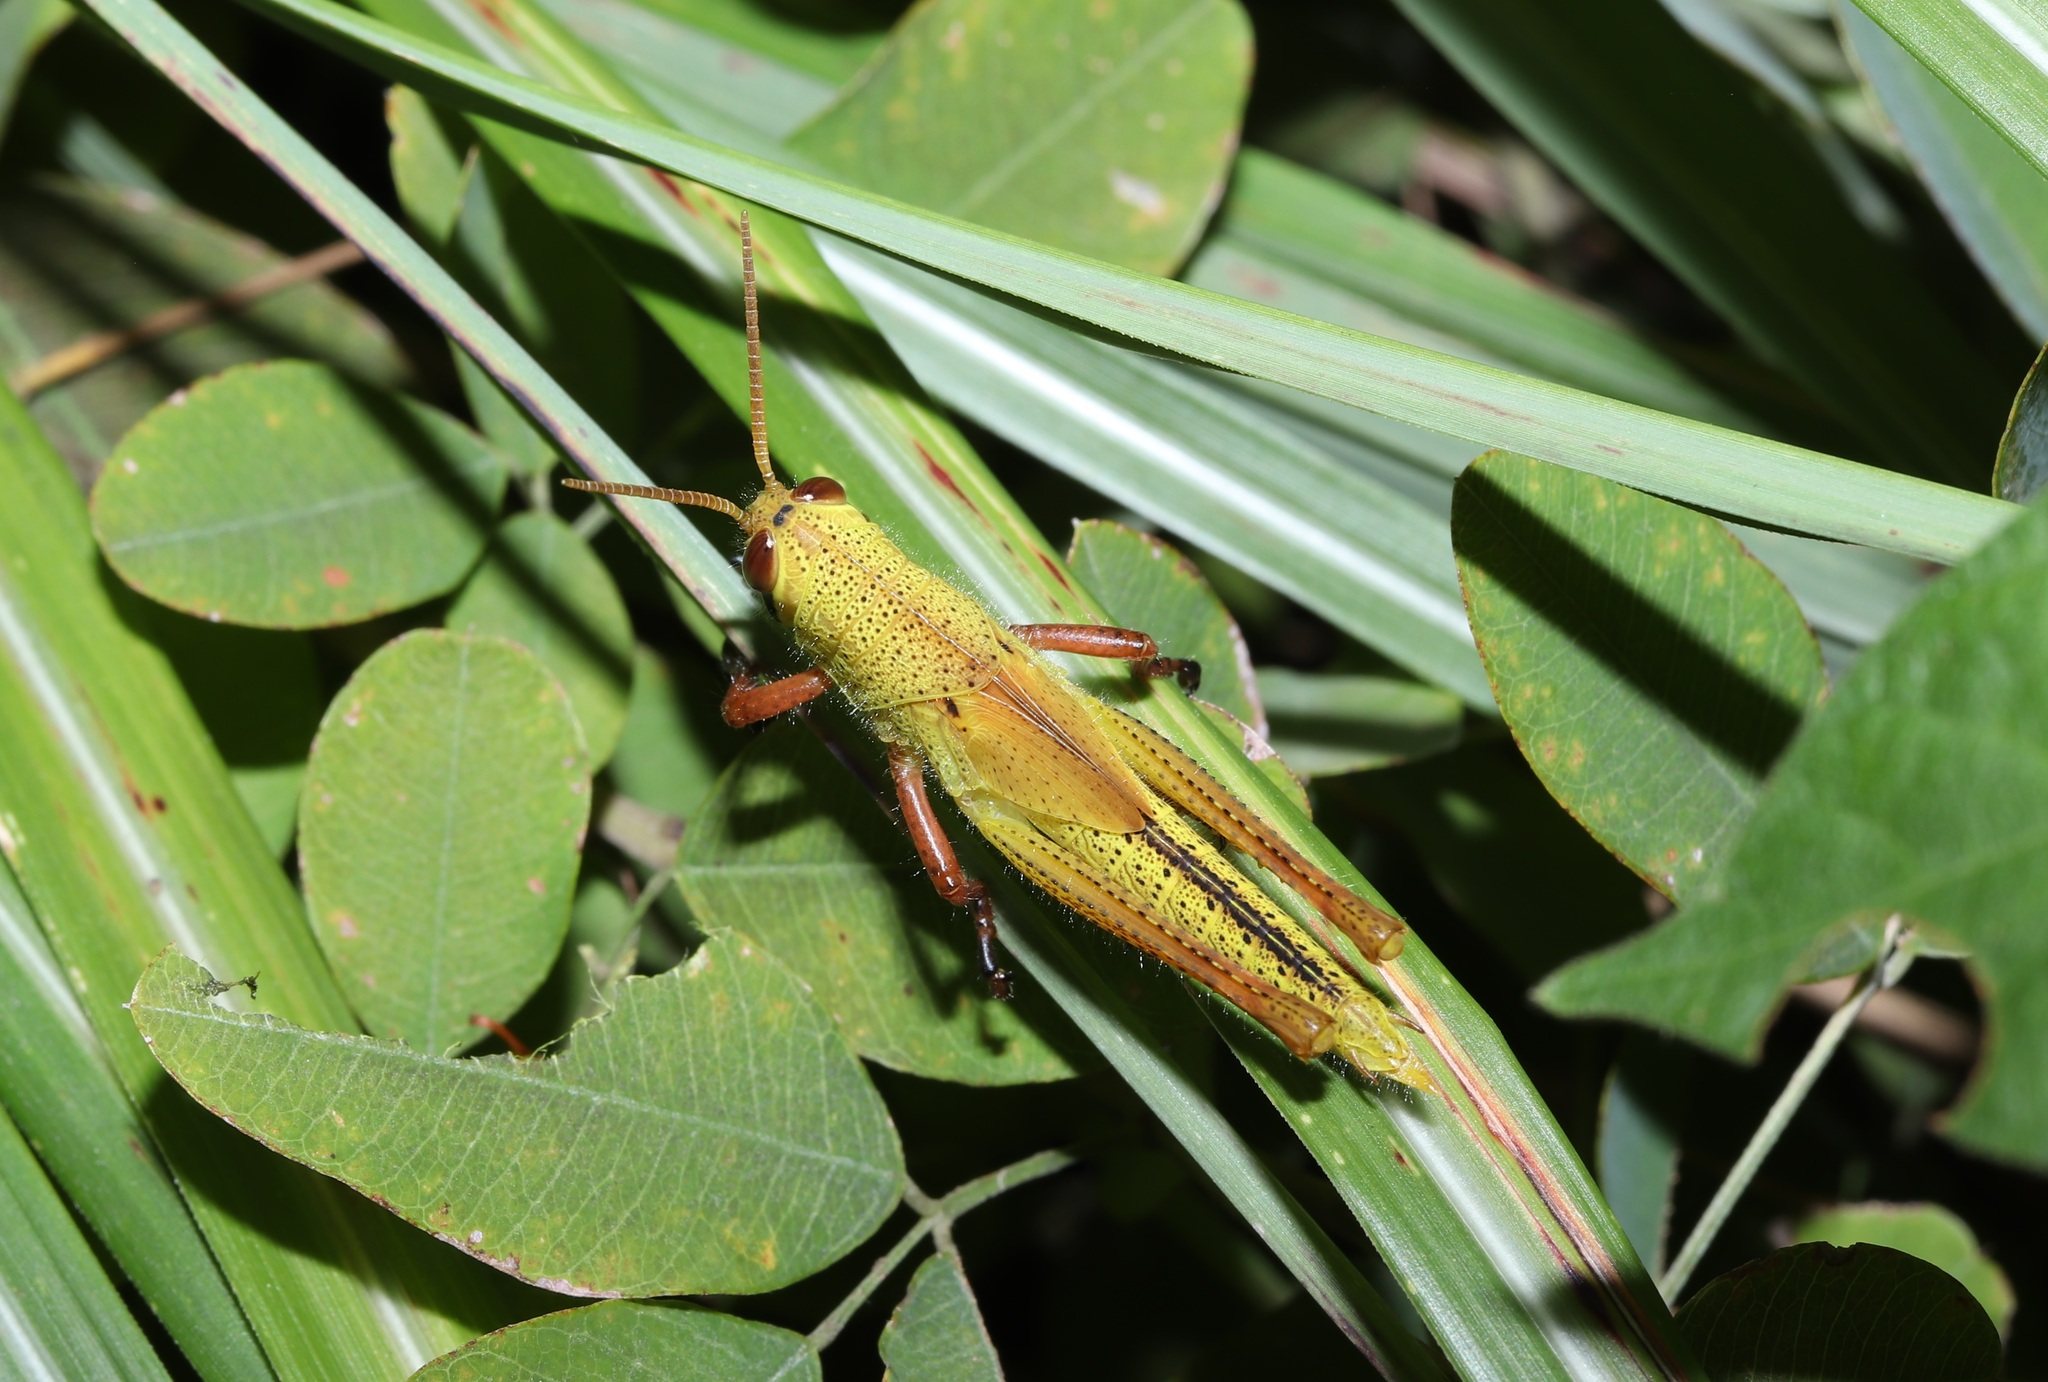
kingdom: Animalia
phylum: Arthropoda
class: Insecta
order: Orthoptera
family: Acrididae
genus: Patanga
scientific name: Patanga japonica
